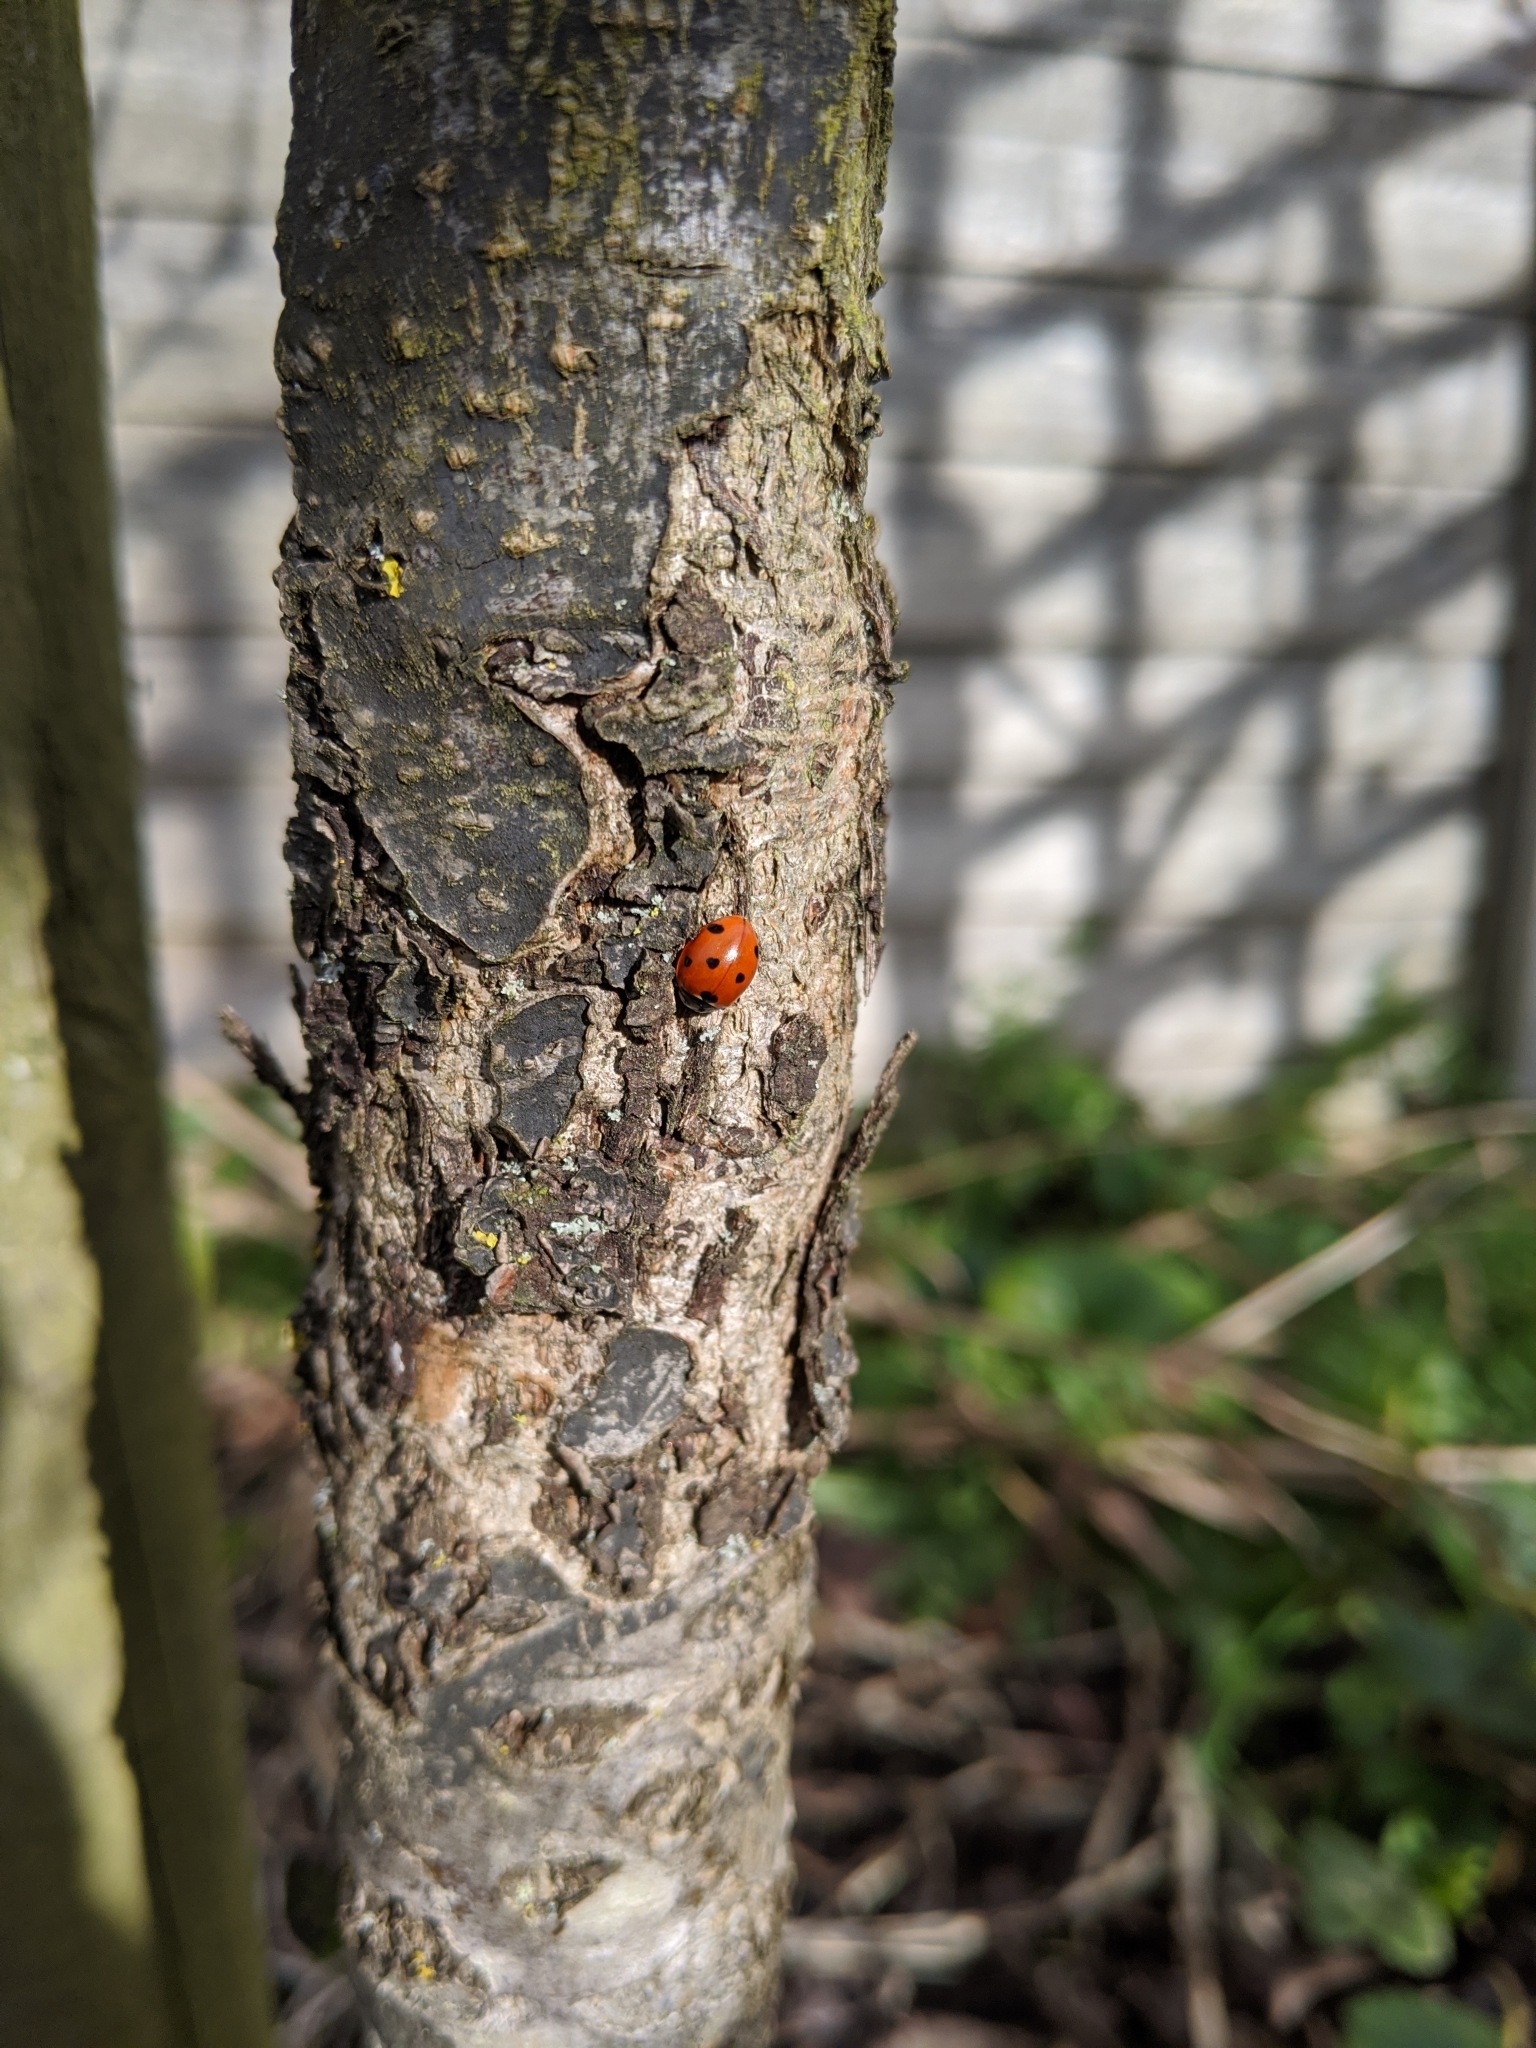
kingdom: Animalia
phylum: Arthropoda
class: Insecta
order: Coleoptera
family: Coccinellidae
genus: Coccinella
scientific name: Coccinella septempunctata
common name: Sevenspotted lady beetle
